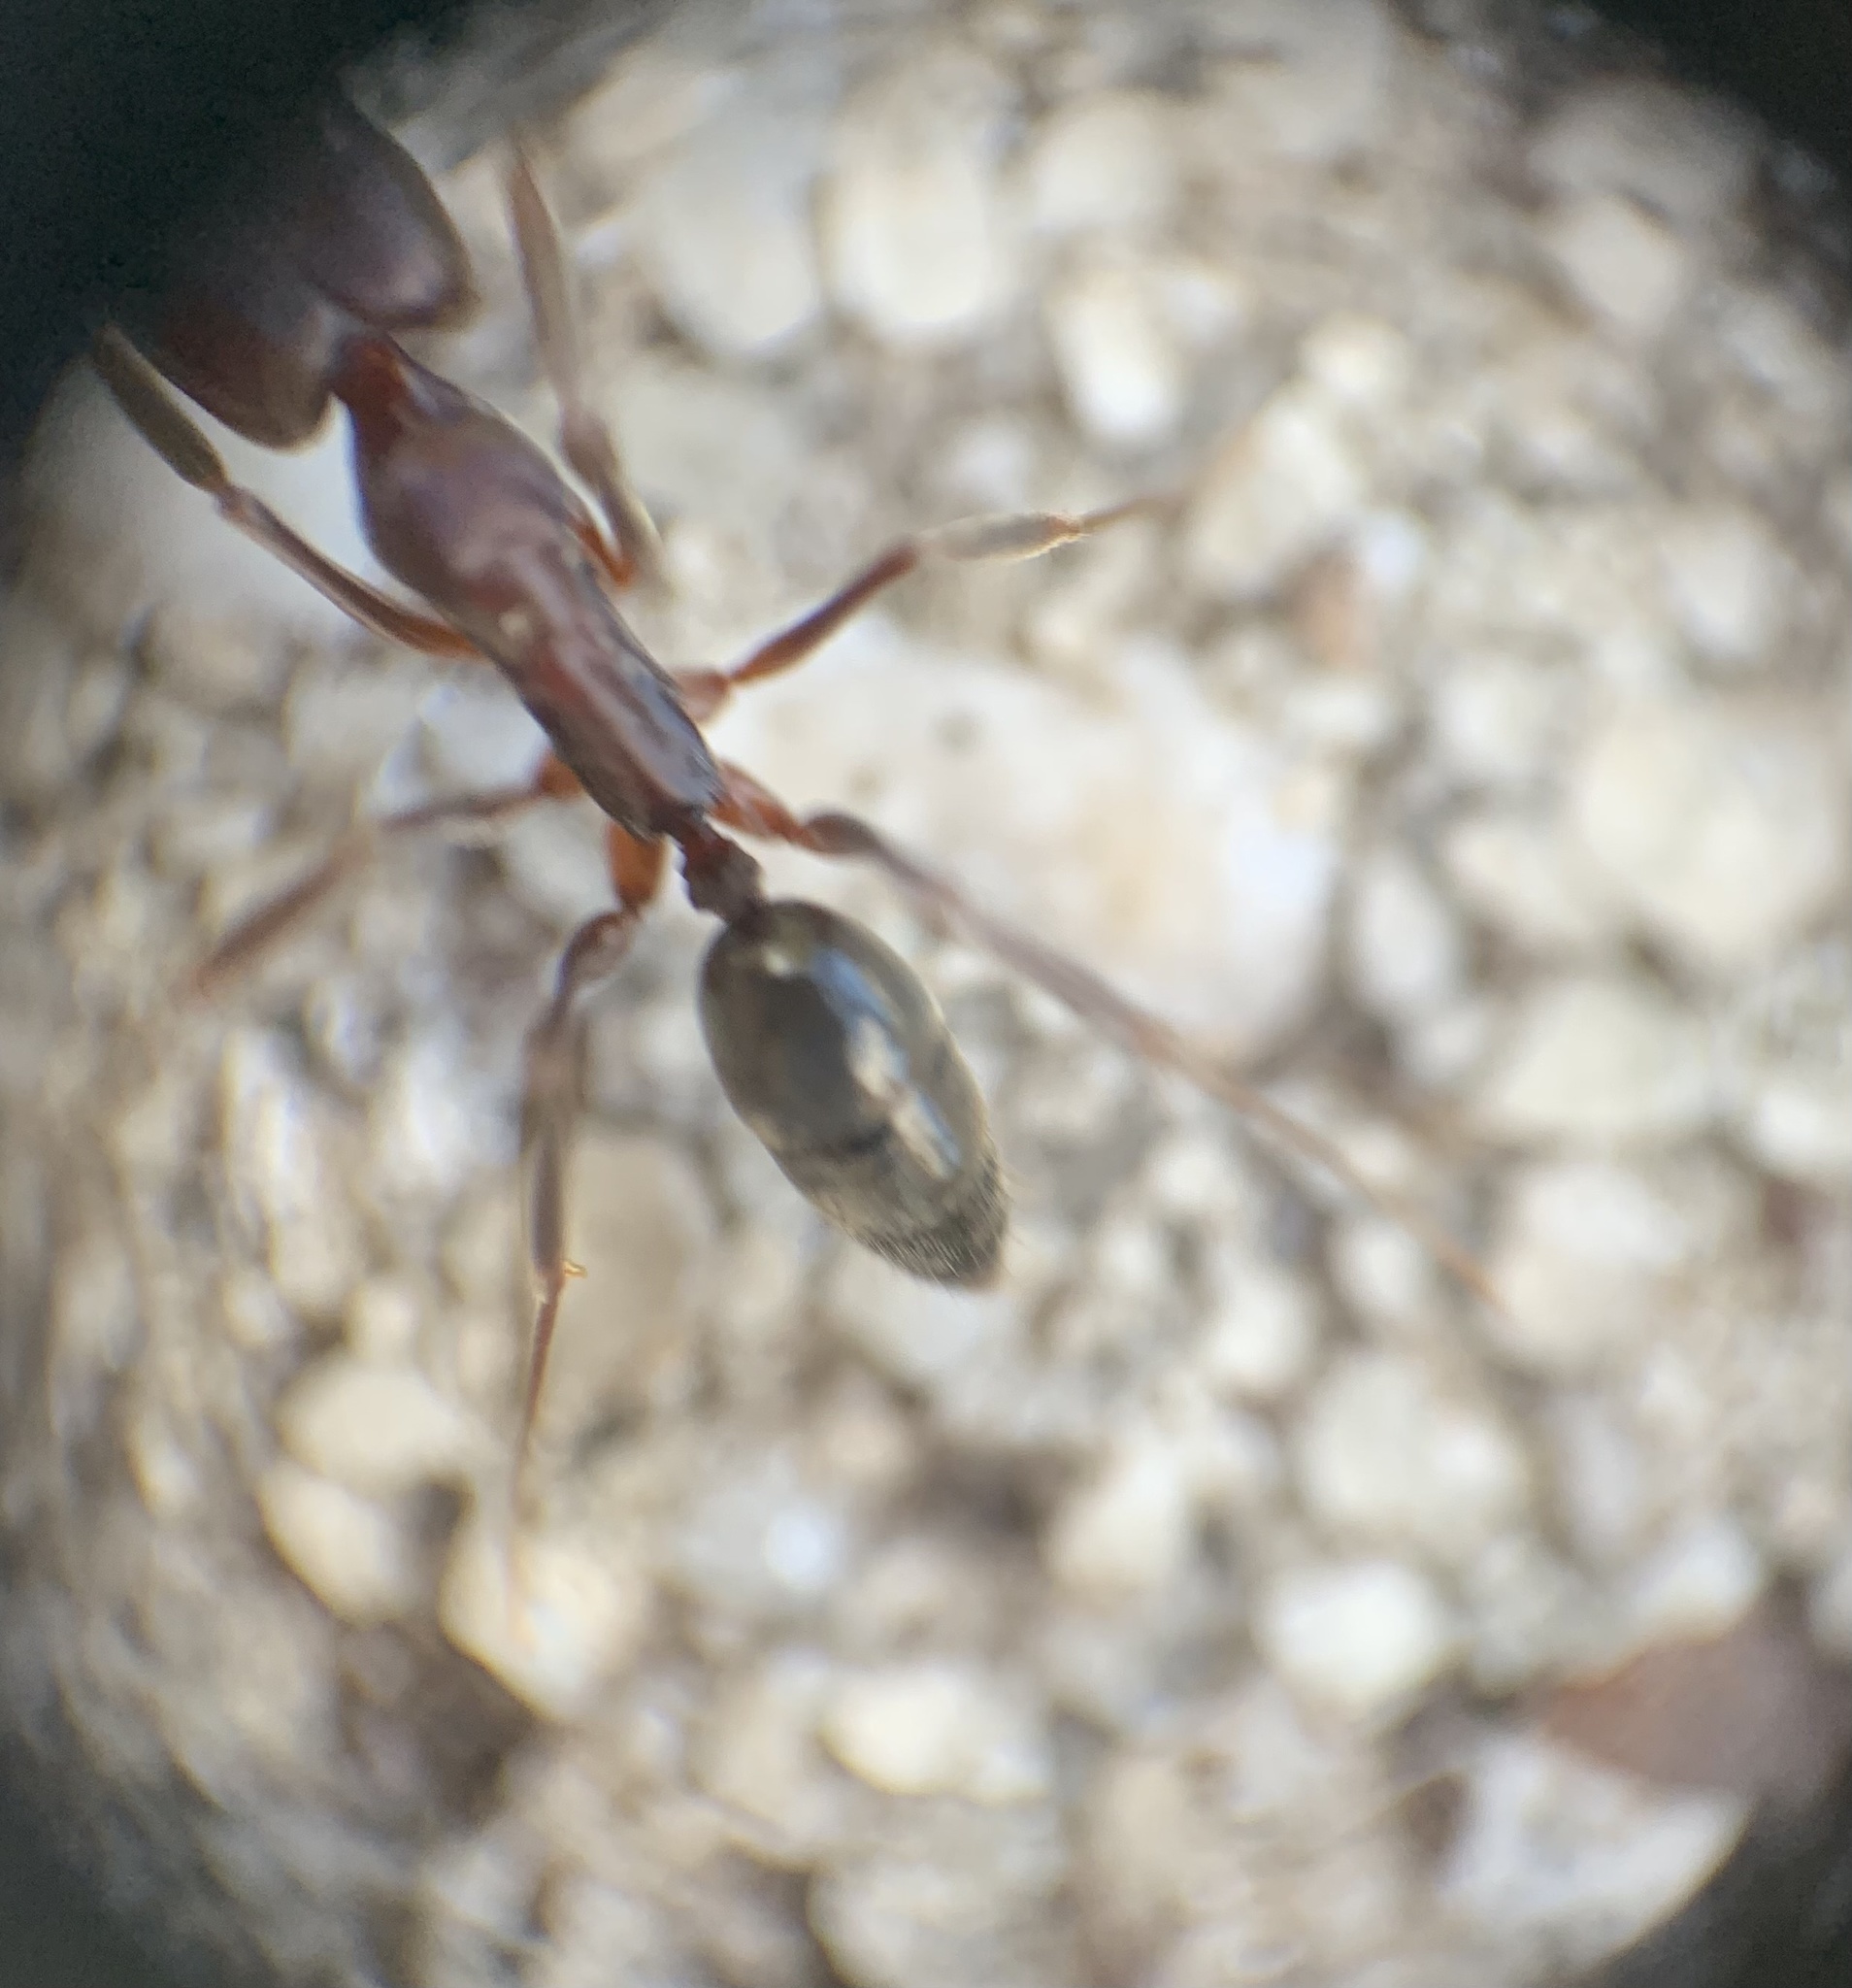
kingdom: Animalia
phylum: Arthropoda
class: Insecta
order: Hymenoptera
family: Formicidae
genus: Odontomachus
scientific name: Odontomachus brunneus
